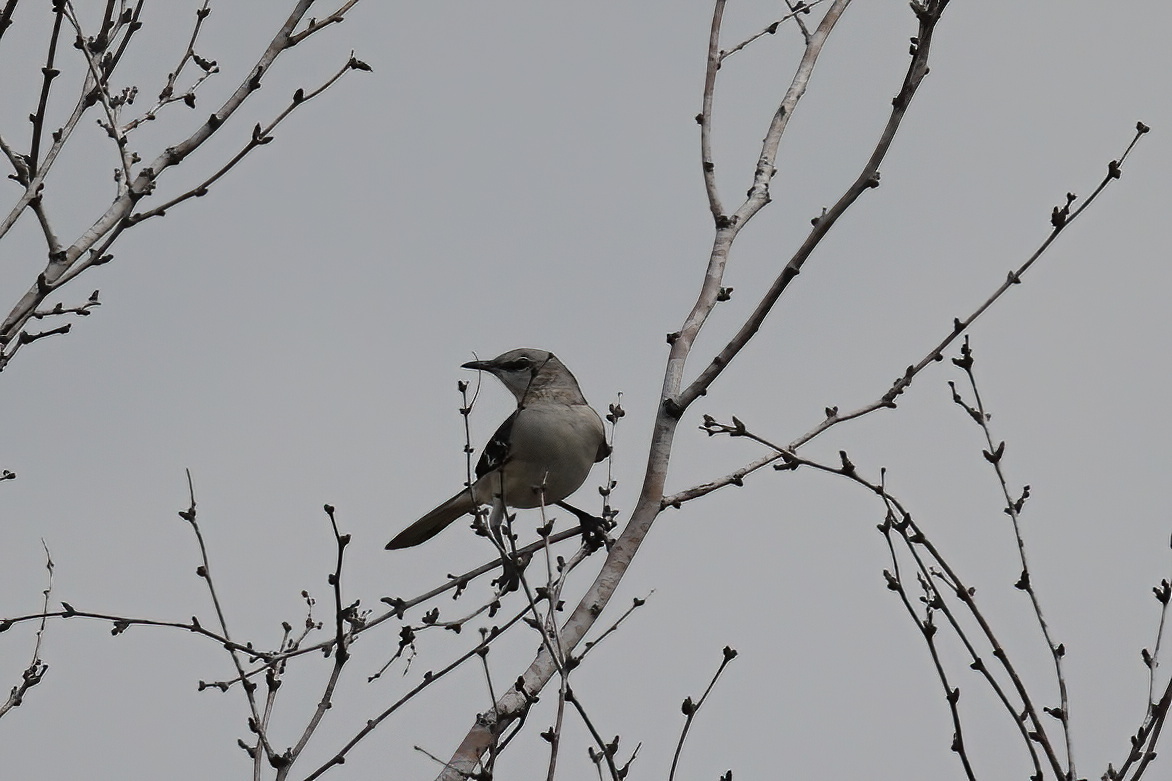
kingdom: Animalia
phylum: Chordata
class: Aves
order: Passeriformes
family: Mimidae
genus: Mimus
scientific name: Mimus polyglottos
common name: Northern mockingbird
